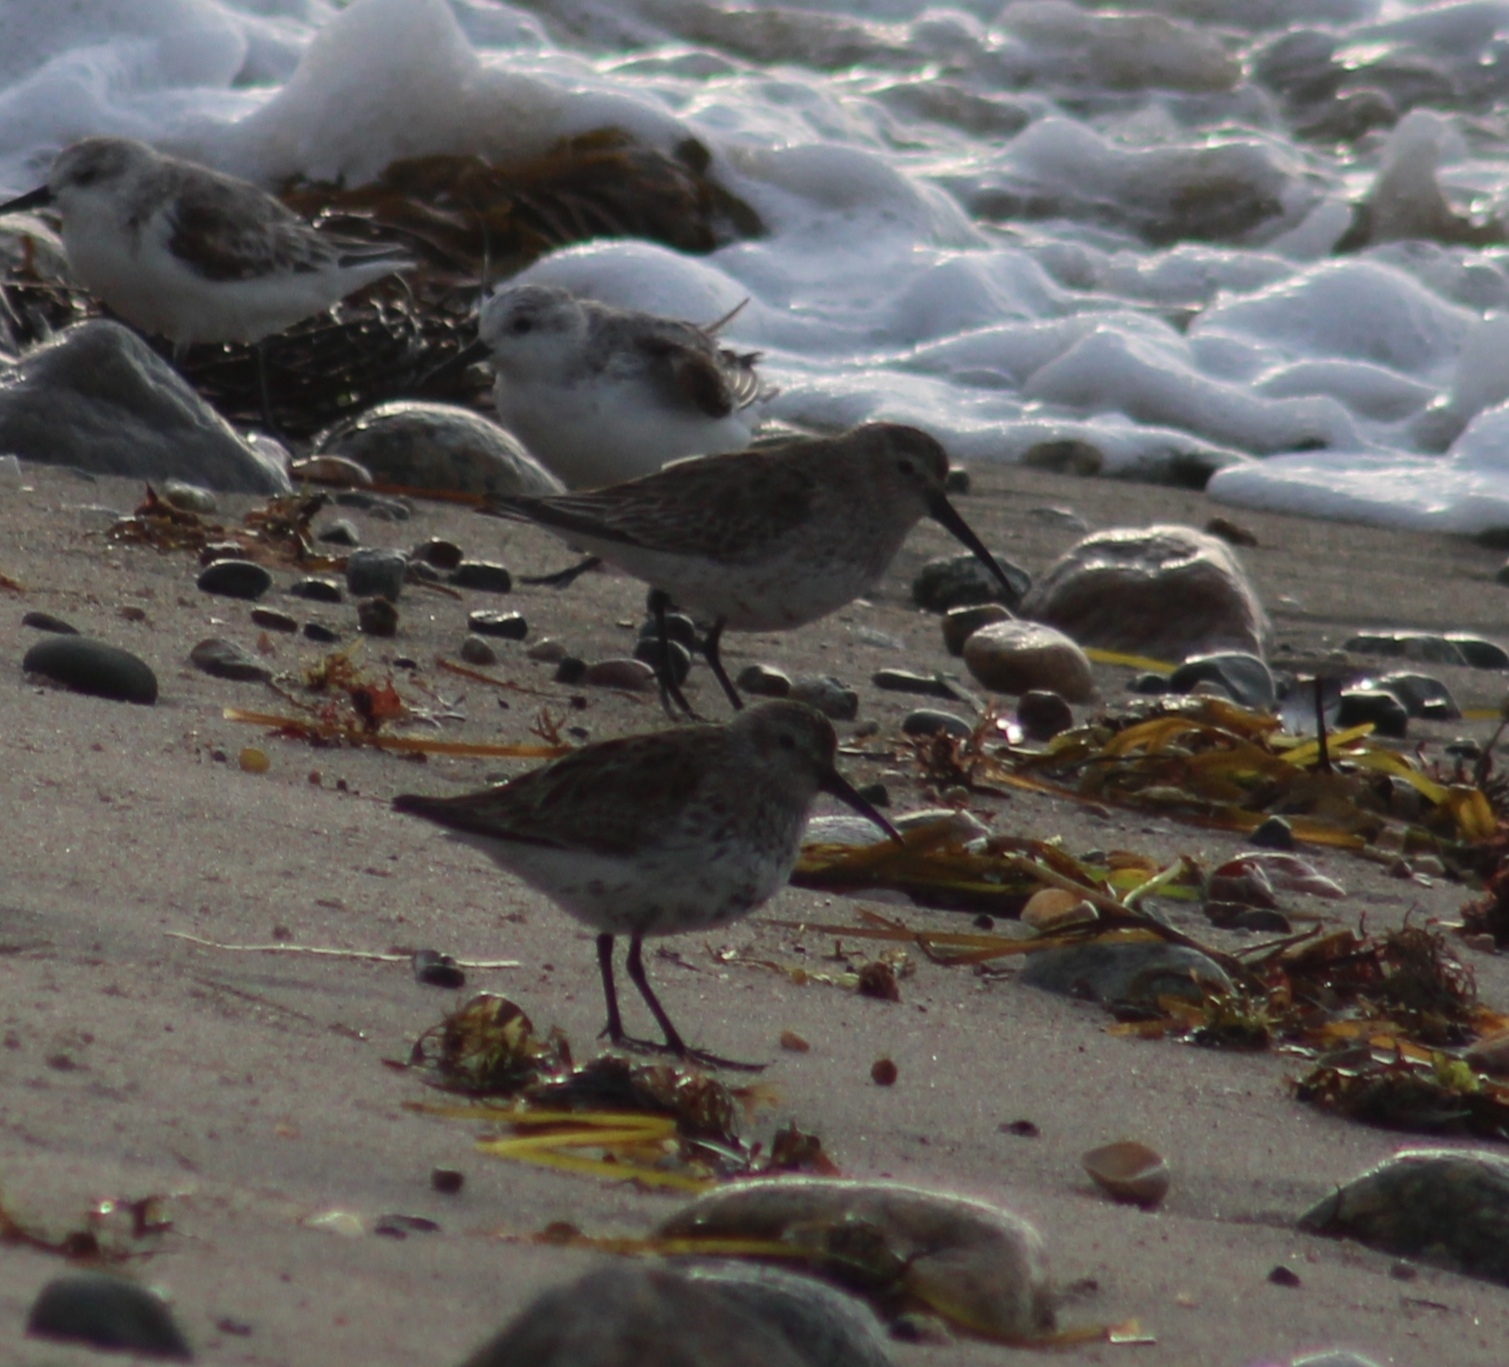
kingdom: Animalia
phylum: Chordata
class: Aves
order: Charadriiformes
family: Scolopacidae
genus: Calidris
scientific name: Calidris alpina
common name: Dunlin
